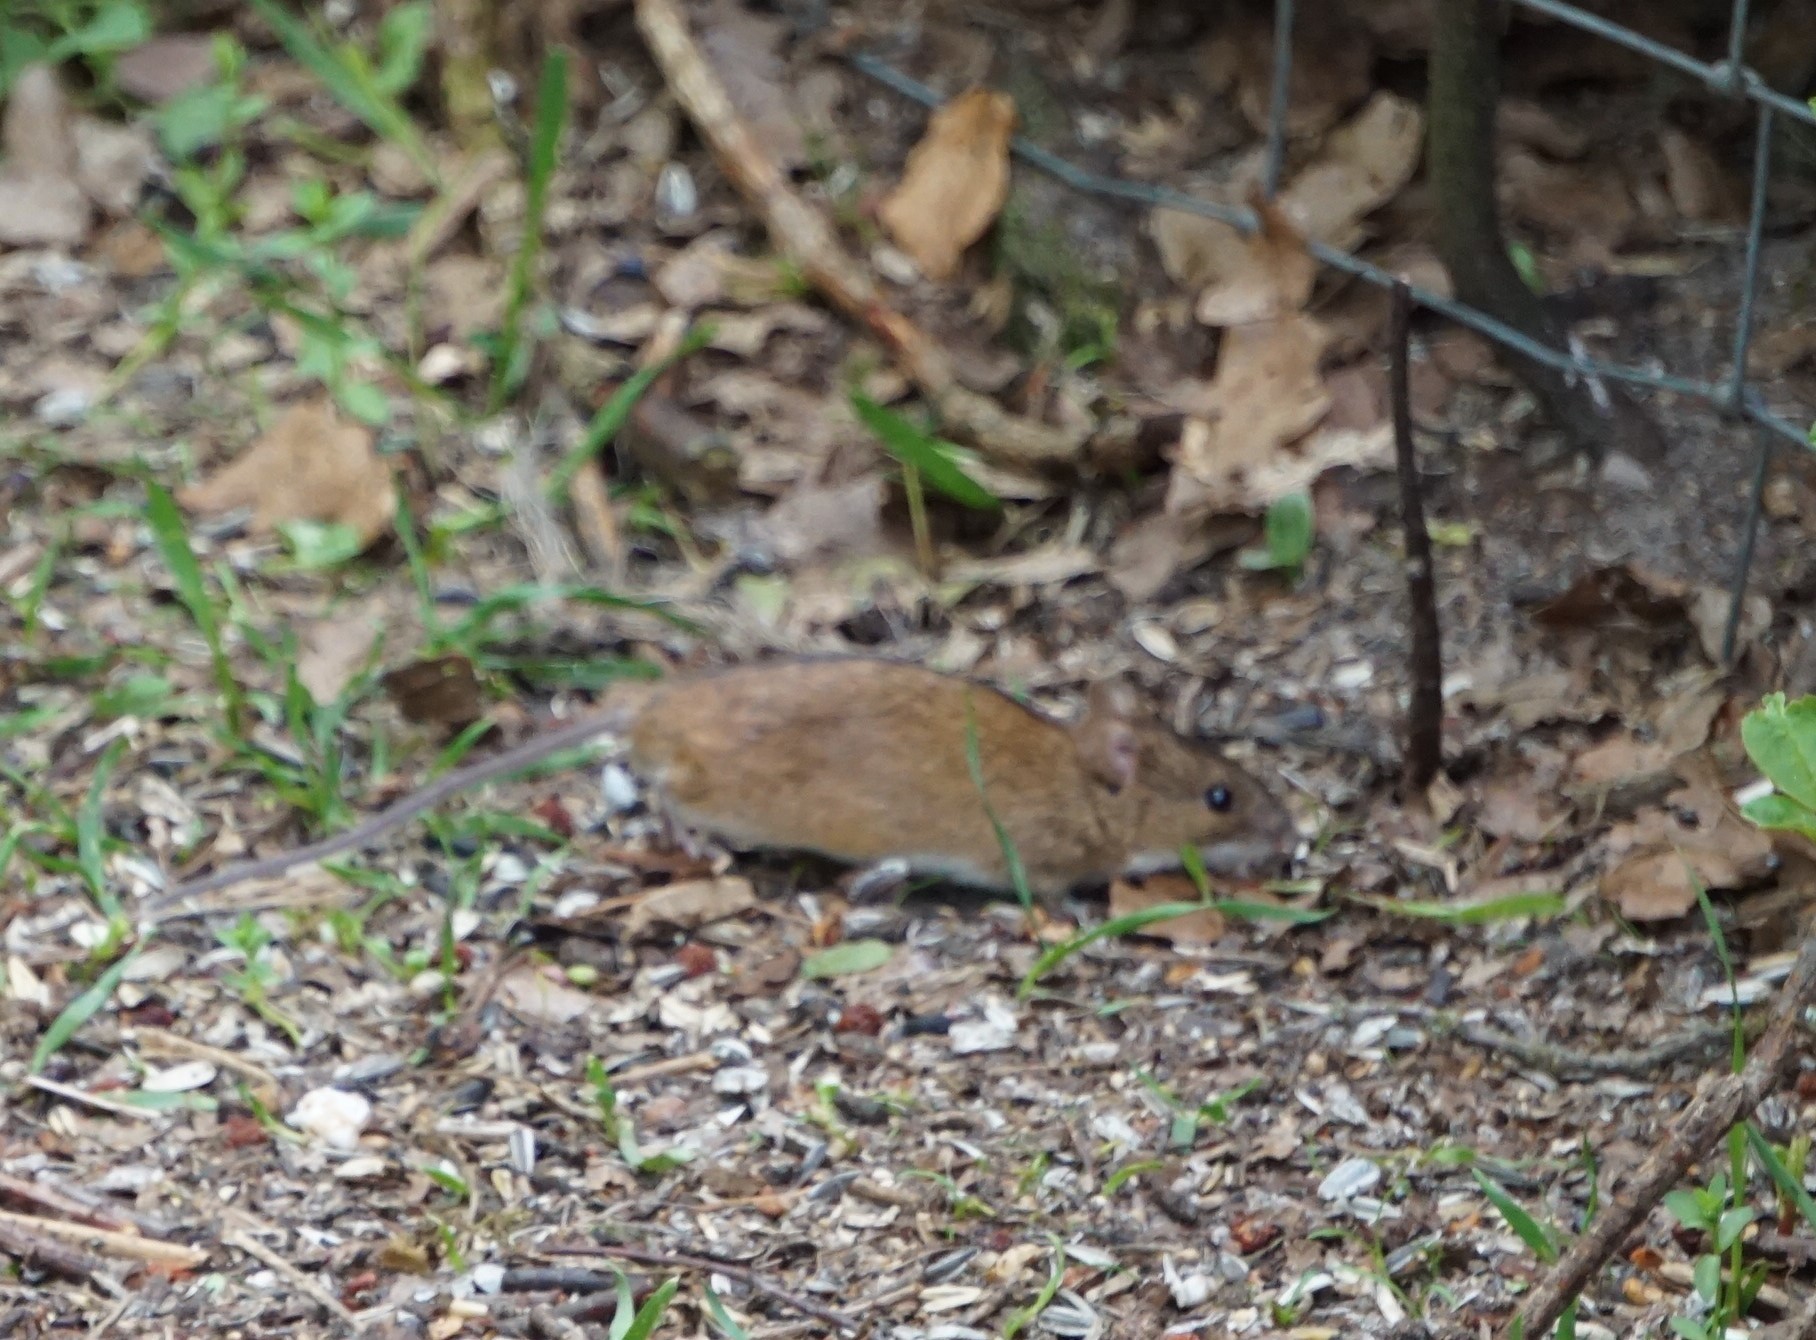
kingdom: Animalia
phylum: Chordata
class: Mammalia
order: Rodentia
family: Muridae
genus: Apodemus
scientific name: Apodemus agrarius
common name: Striped field mouse
